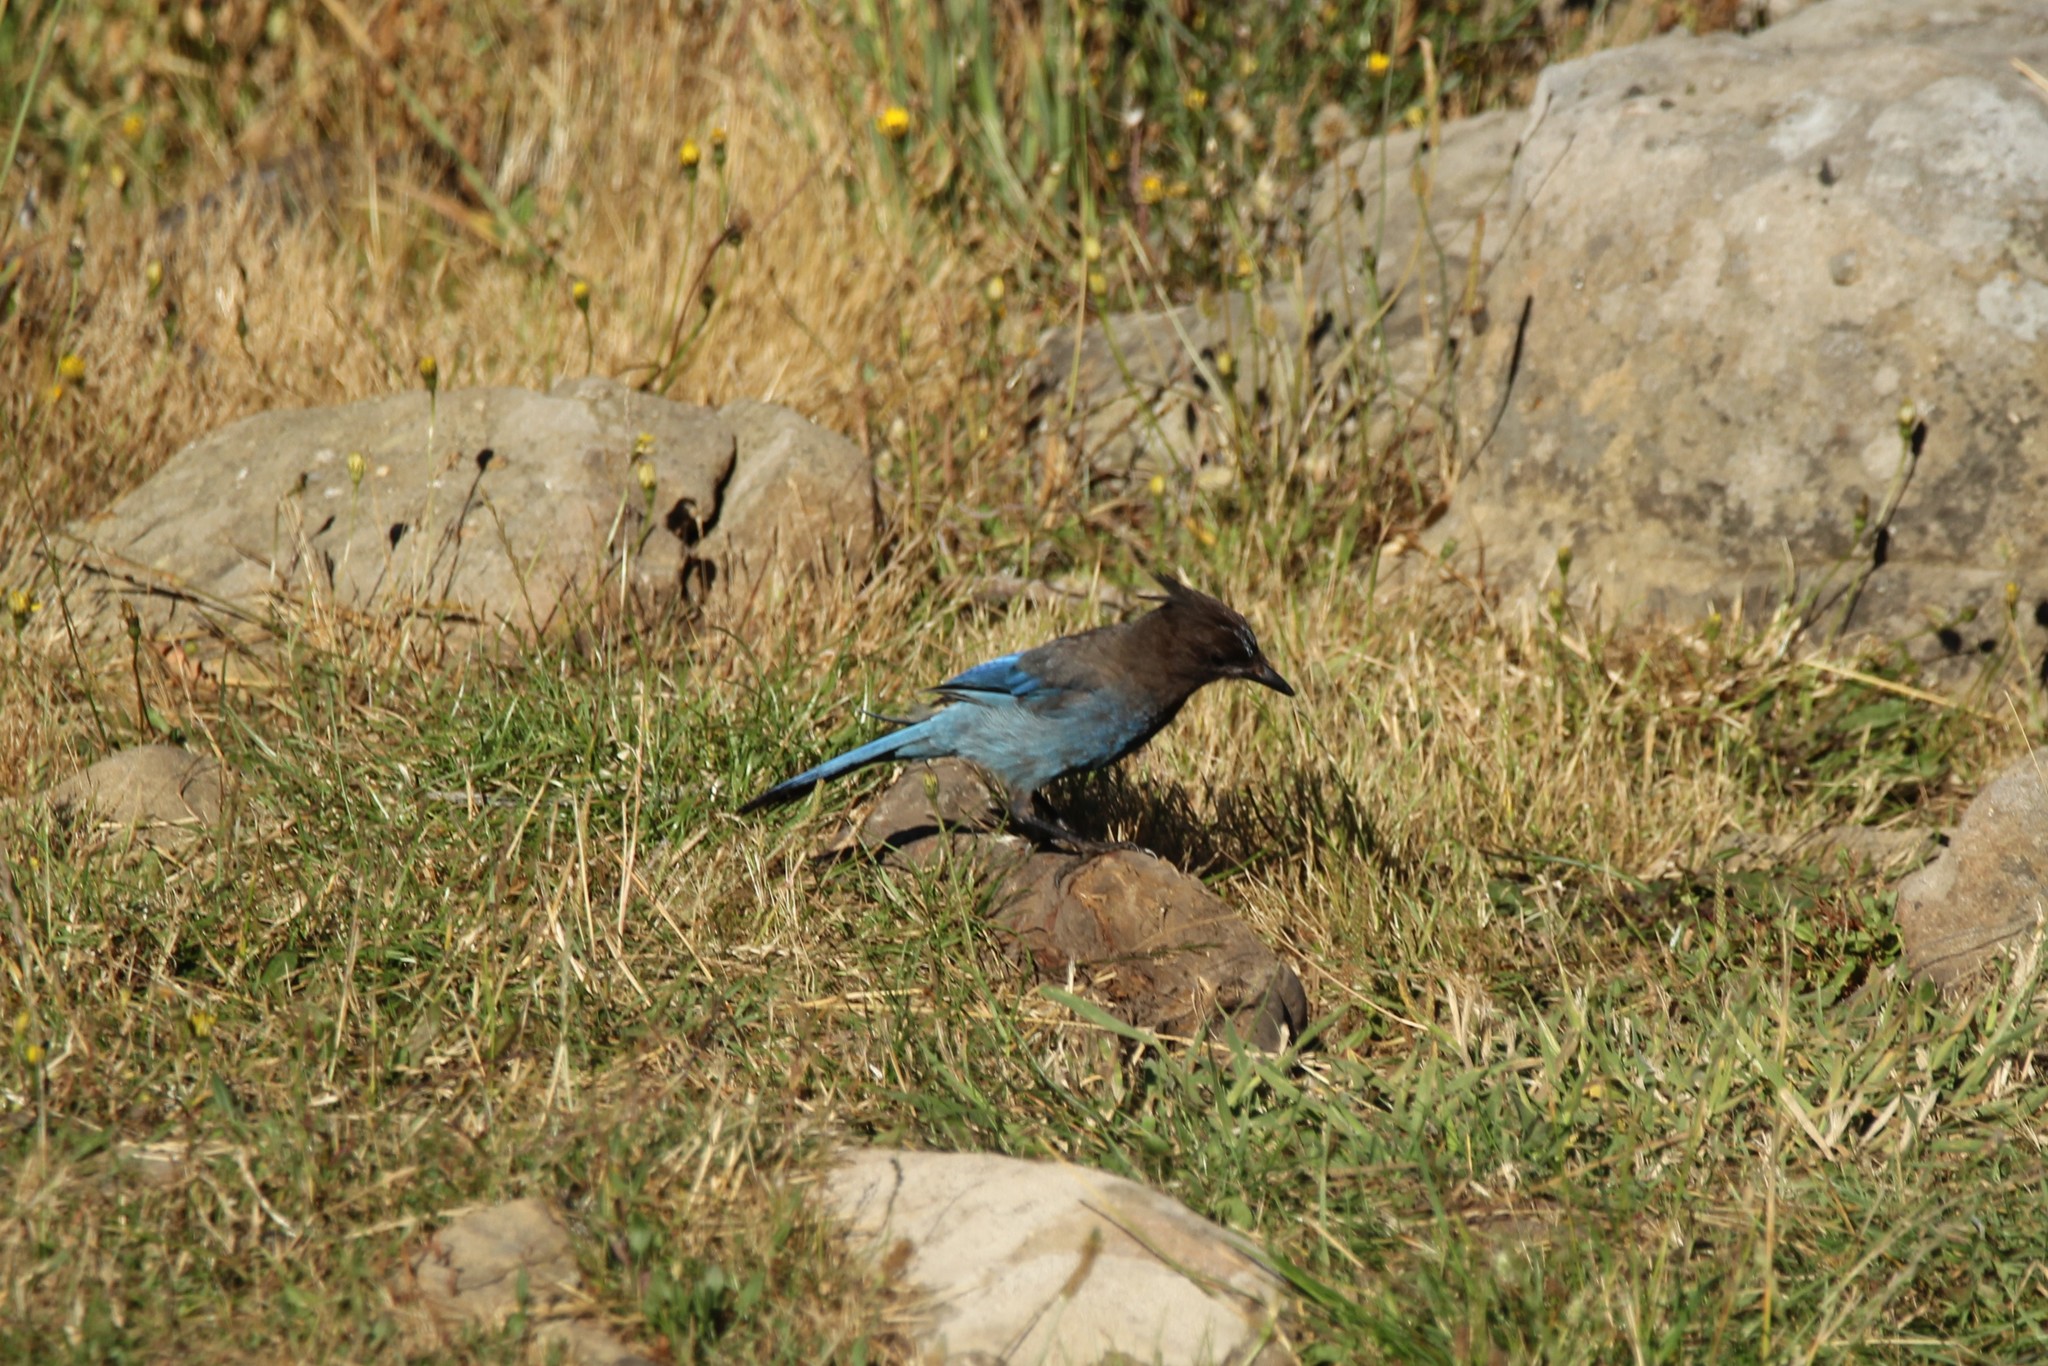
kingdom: Animalia
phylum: Chordata
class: Aves
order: Passeriformes
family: Corvidae
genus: Cyanocitta
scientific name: Cyanocitta stelleri
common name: Steller's jay
